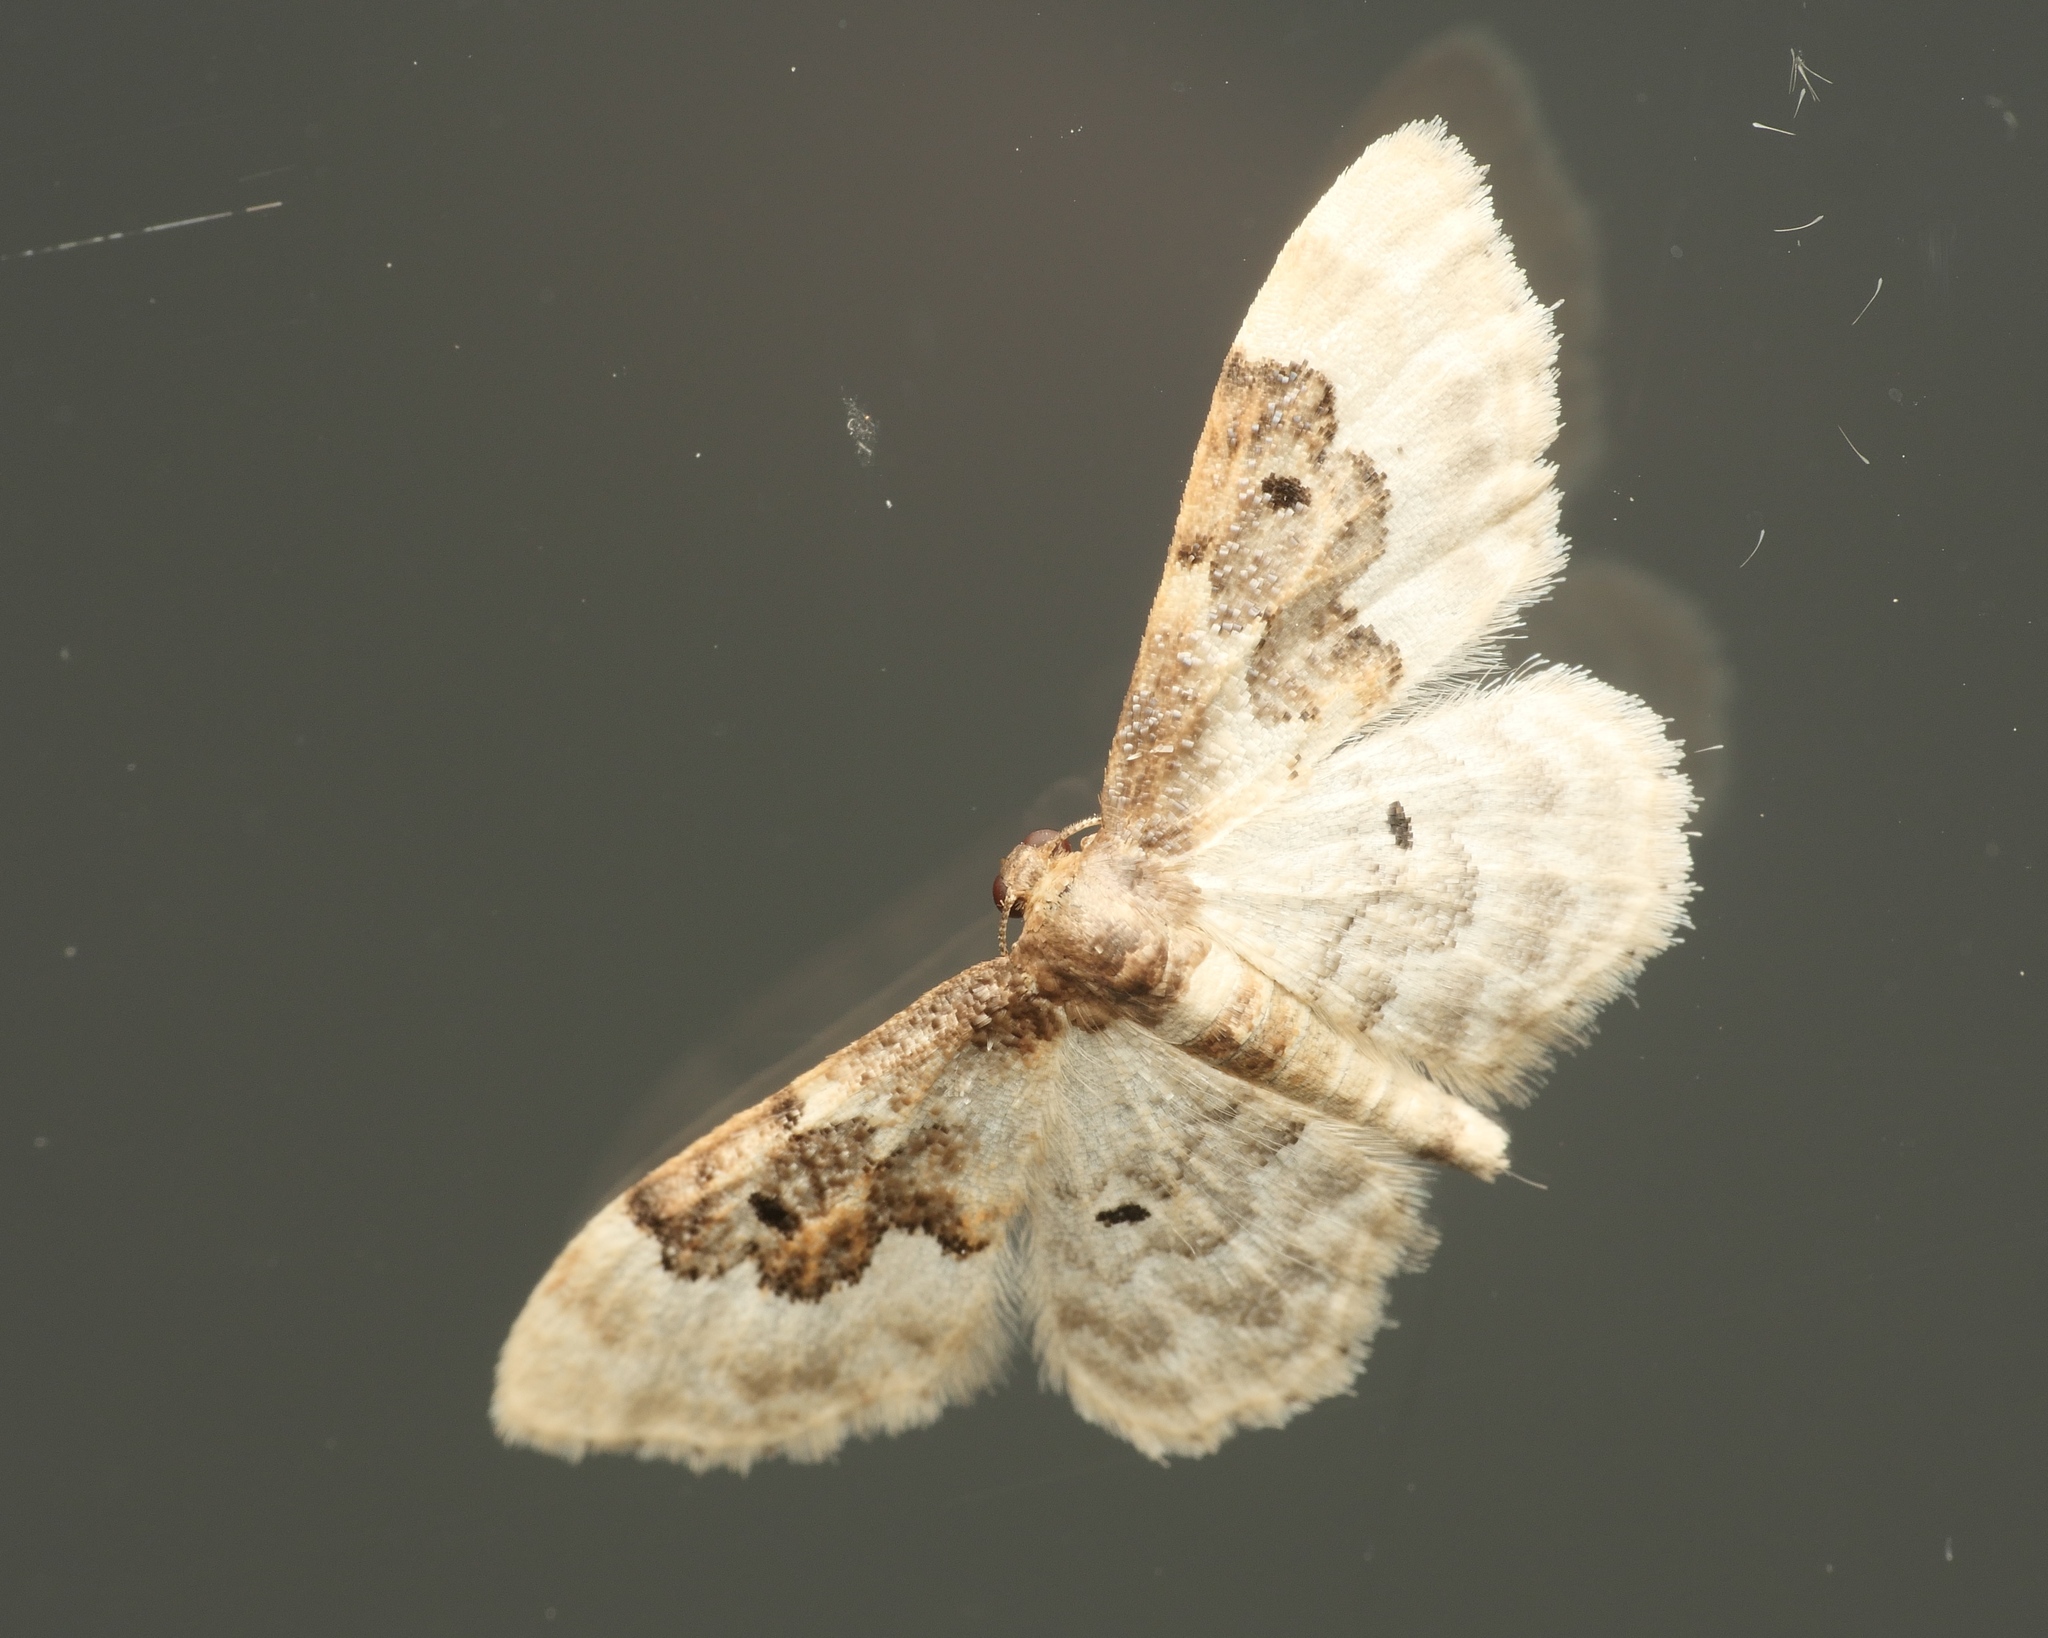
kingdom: Animalia
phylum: Arthropoda
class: Insecta
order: Lepidoptera
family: Geometridae
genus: Idaea
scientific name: Idaea rusticata
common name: Least carpet
